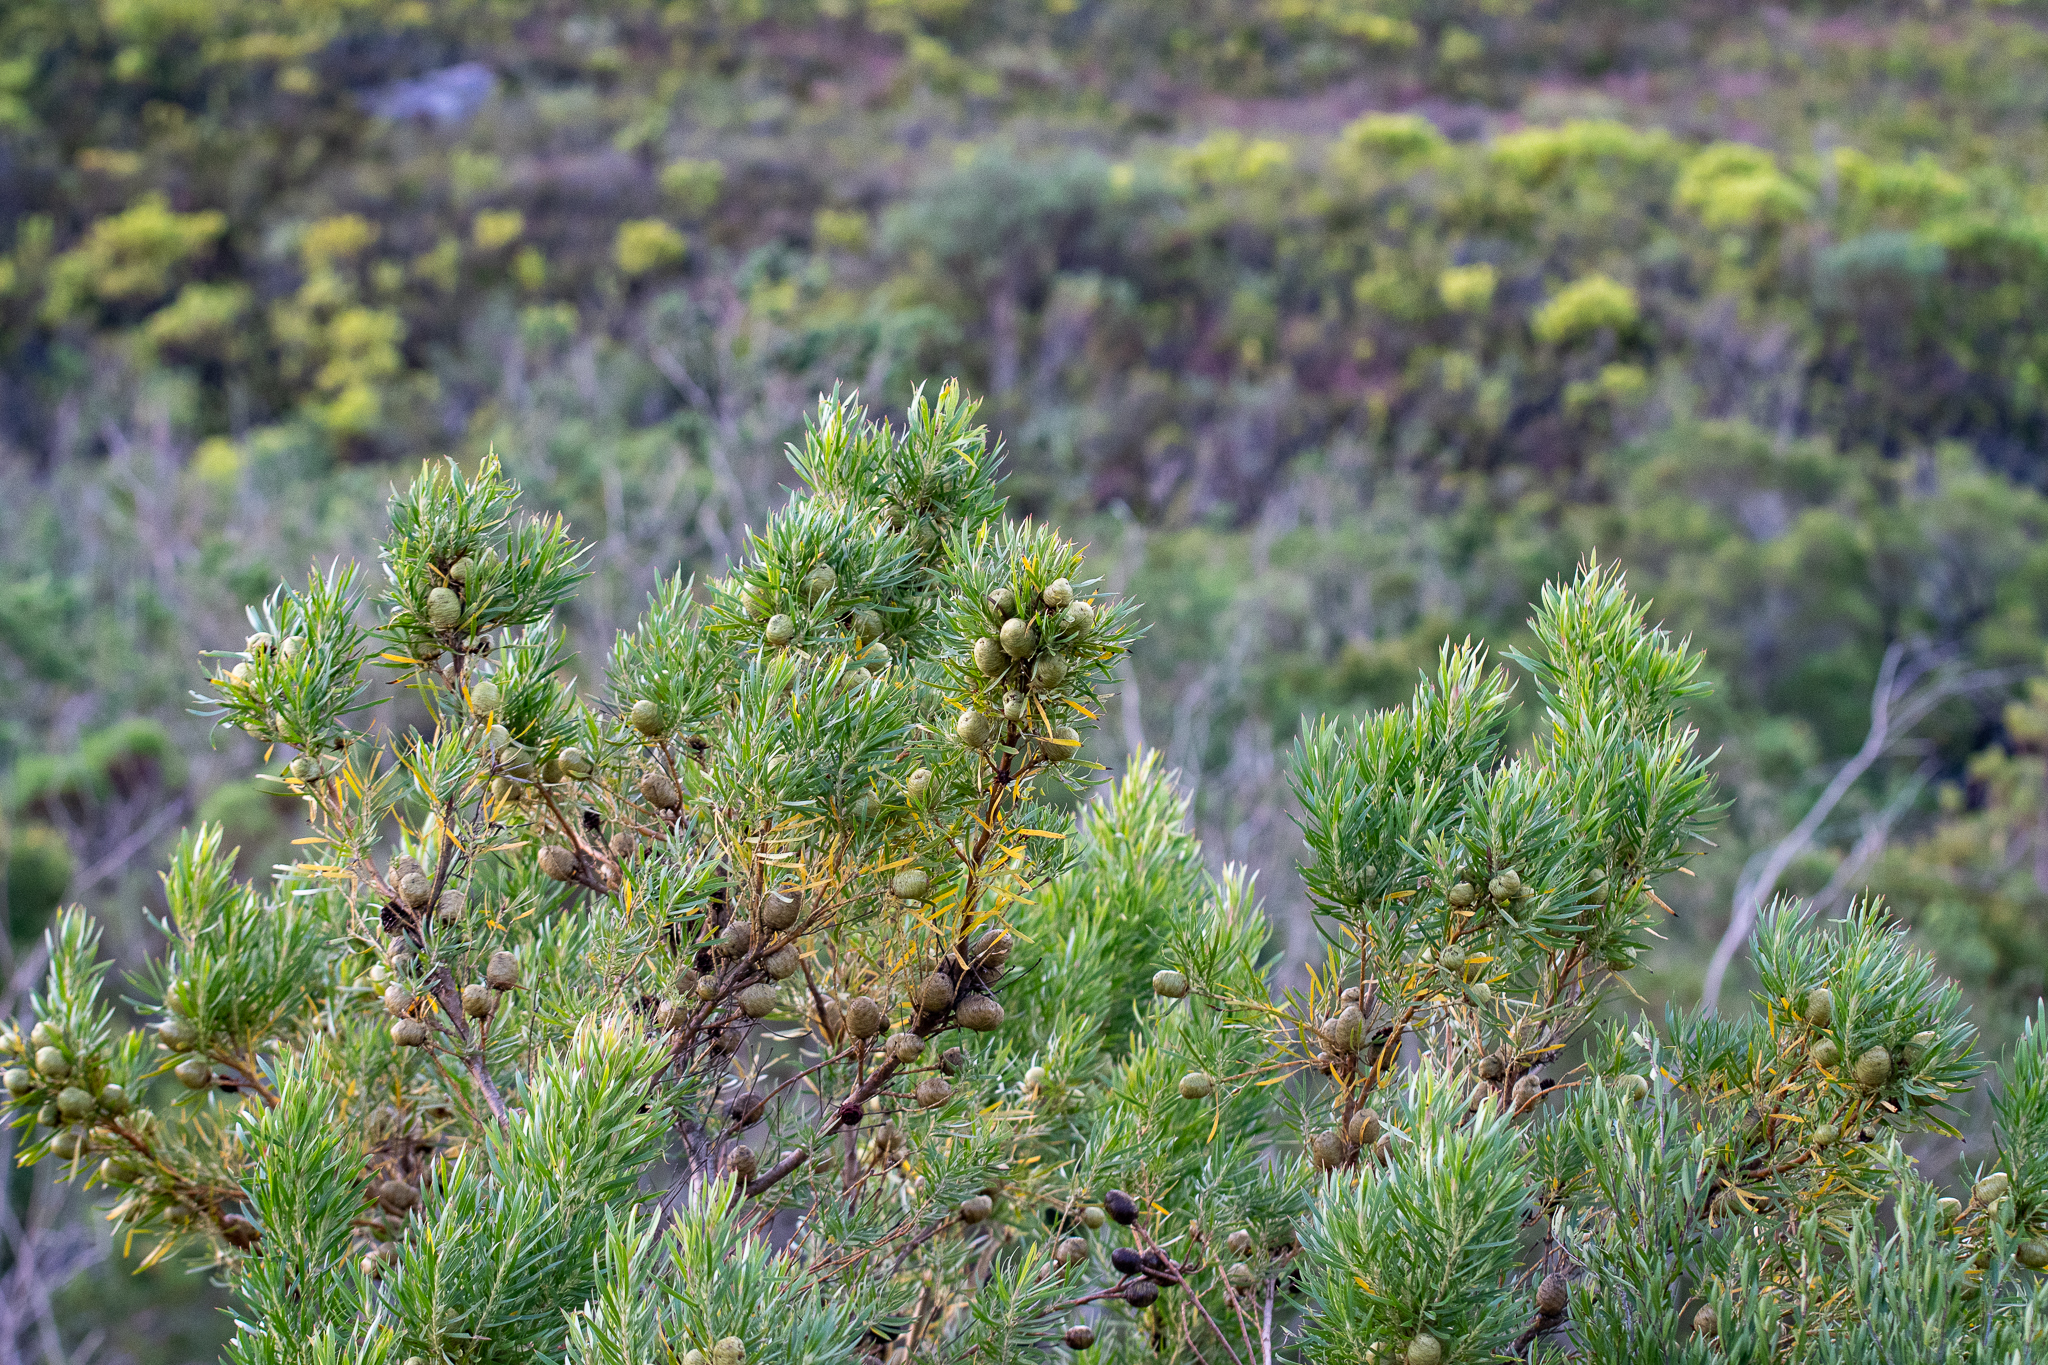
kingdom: Plantae
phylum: Tracheophyta
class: Magnoliopsida
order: Proteales
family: Proteaceae
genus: Leucadendron
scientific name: Leucadendron salicifolium
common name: Common stream conebush
